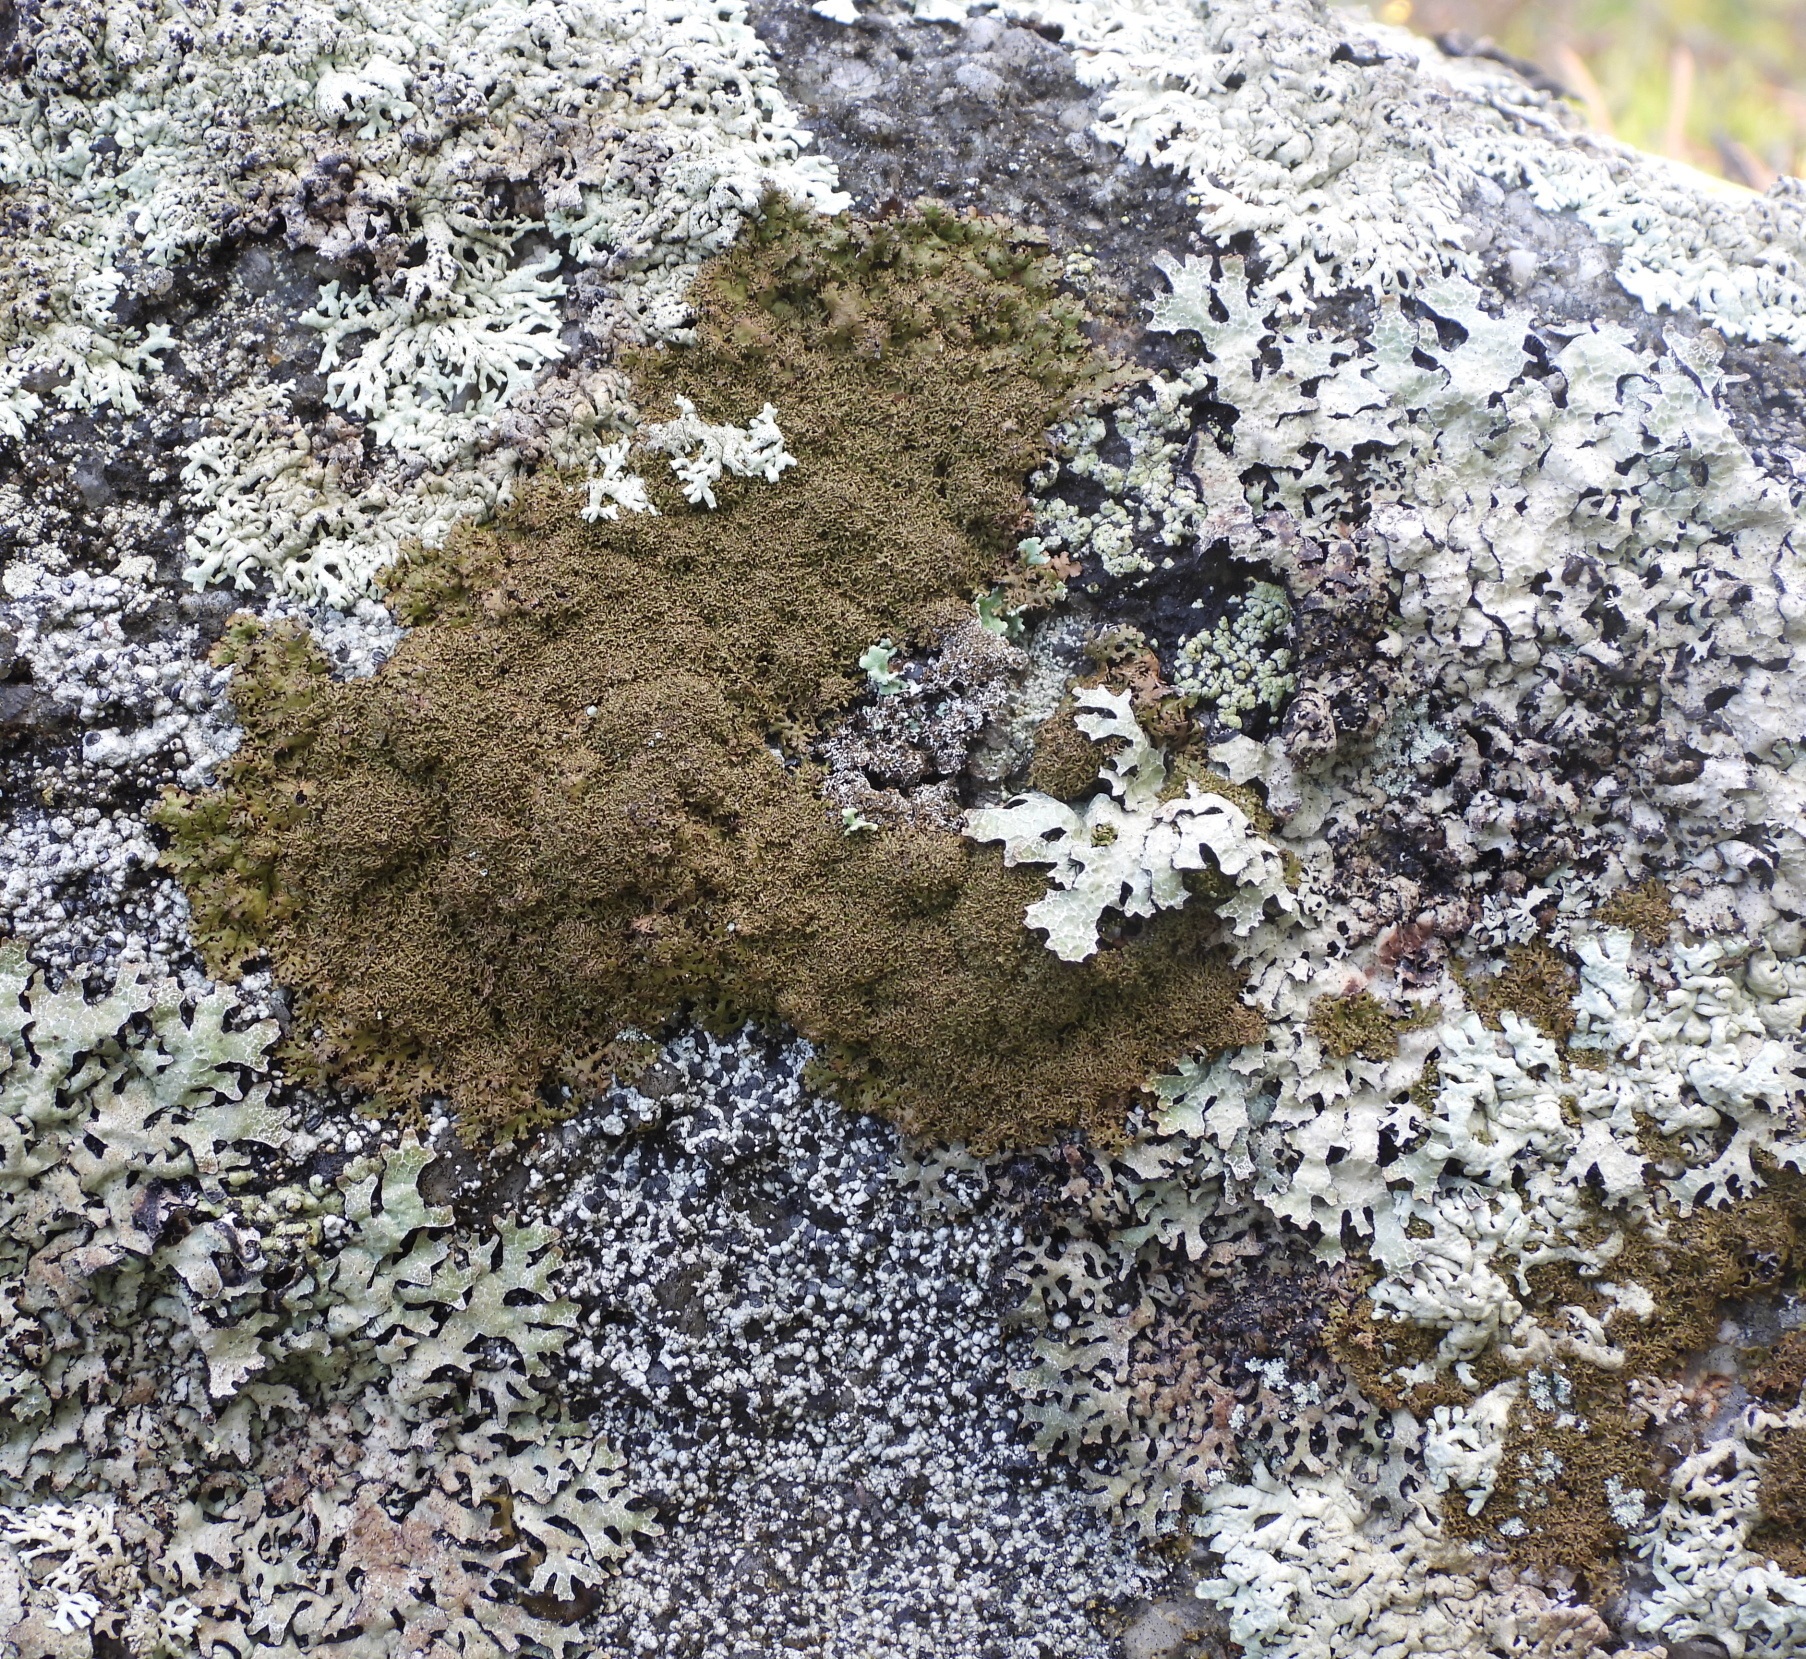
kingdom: Fungi
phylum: Ascomycota
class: Lecanoromycetes
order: Lecanorales
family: Parmeliaceae
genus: Montanelia
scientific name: Montanelia panniformis
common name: Shingled camouflage lichen
